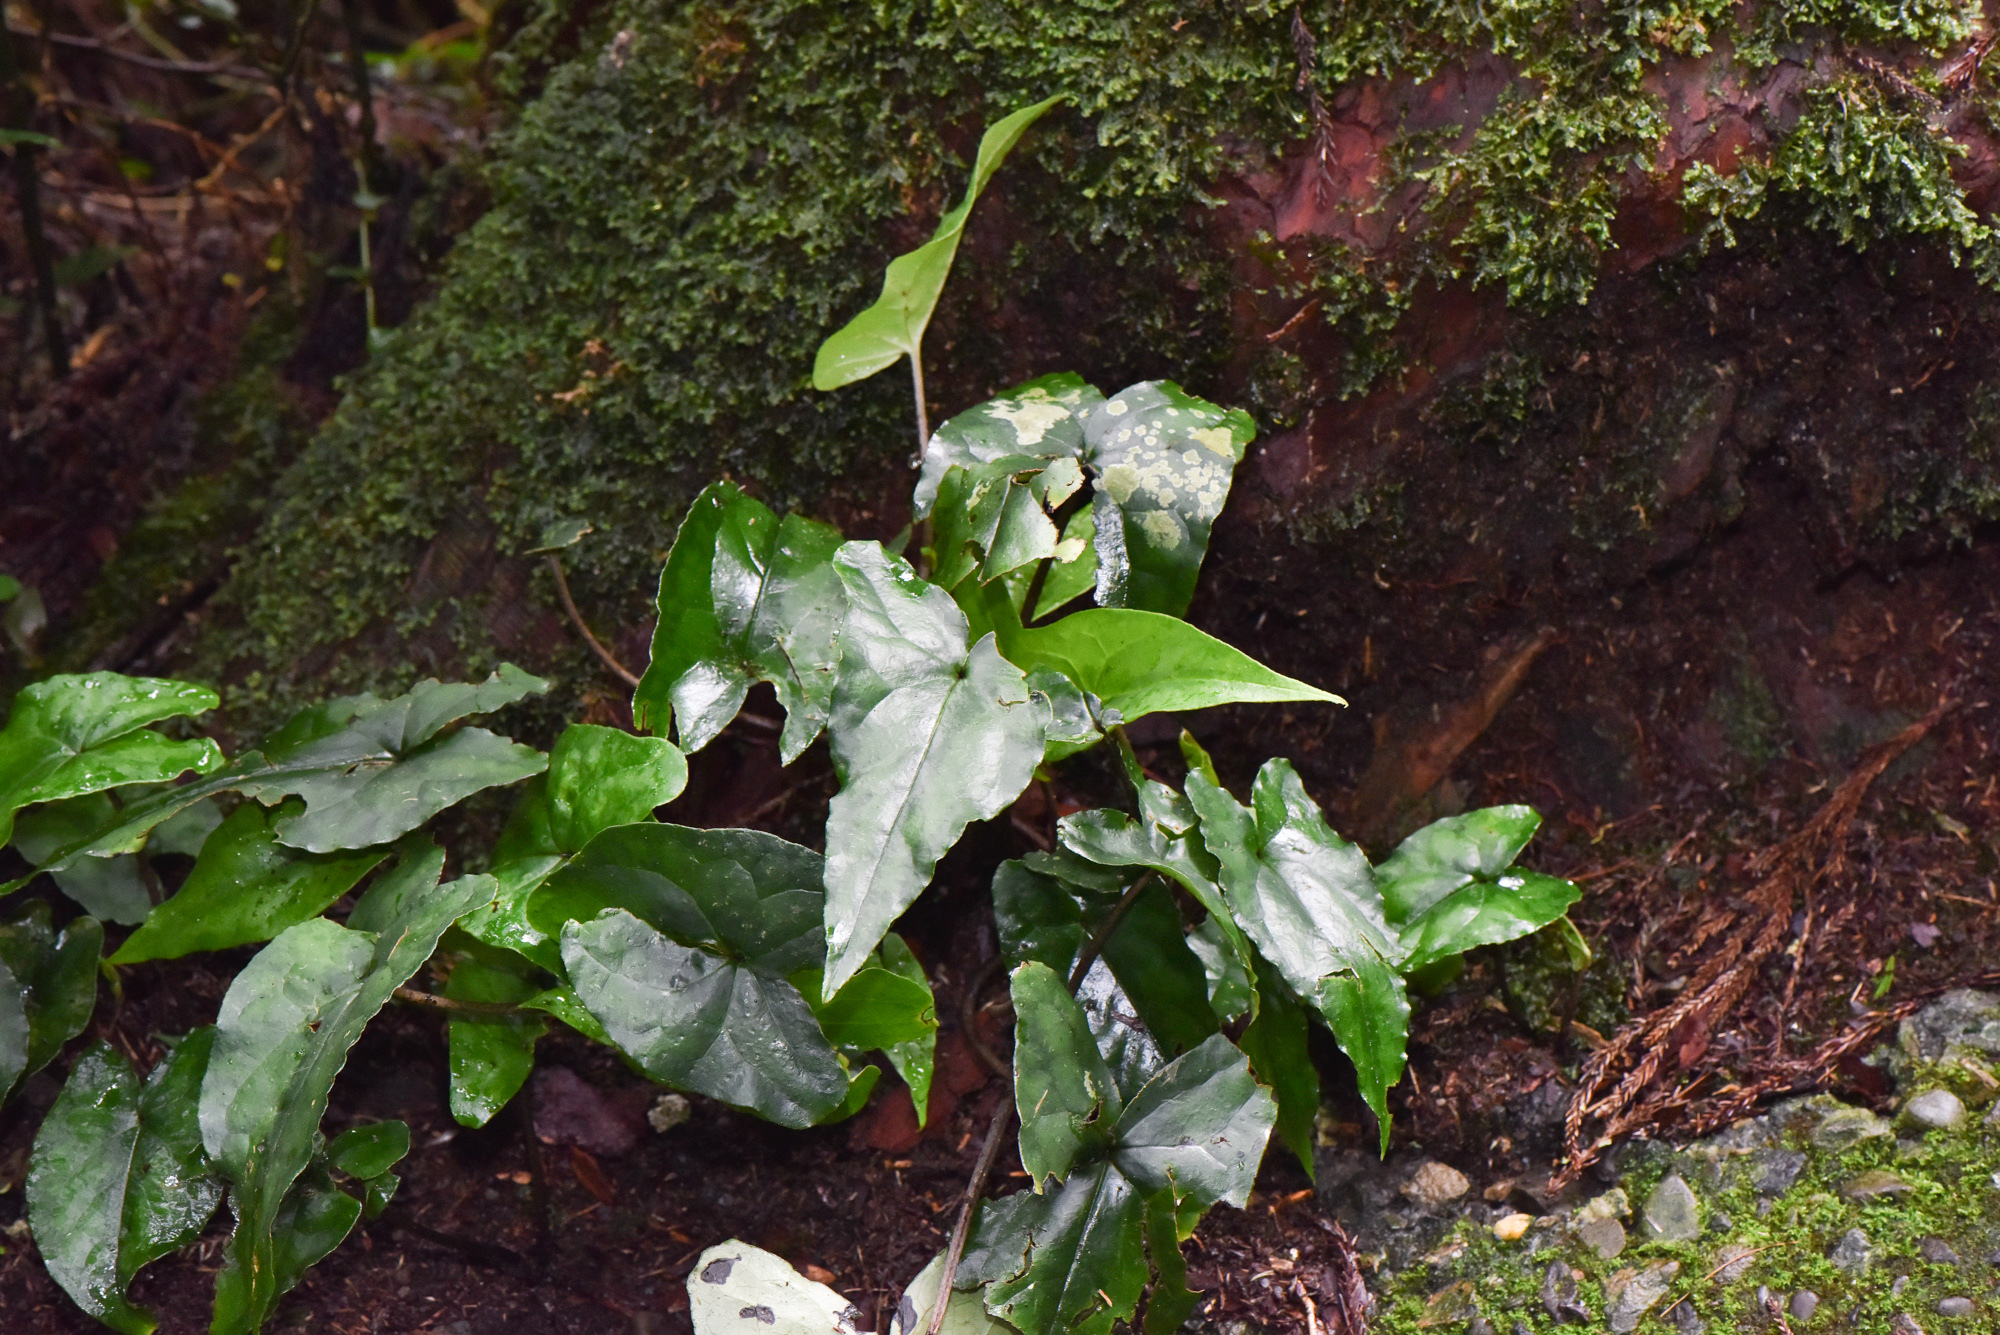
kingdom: Plantae
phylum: Tracheophyta
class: Magnoliopsida
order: Piperales
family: Aristolochiaceae
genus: Asarum
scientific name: Asarum hypogynum
